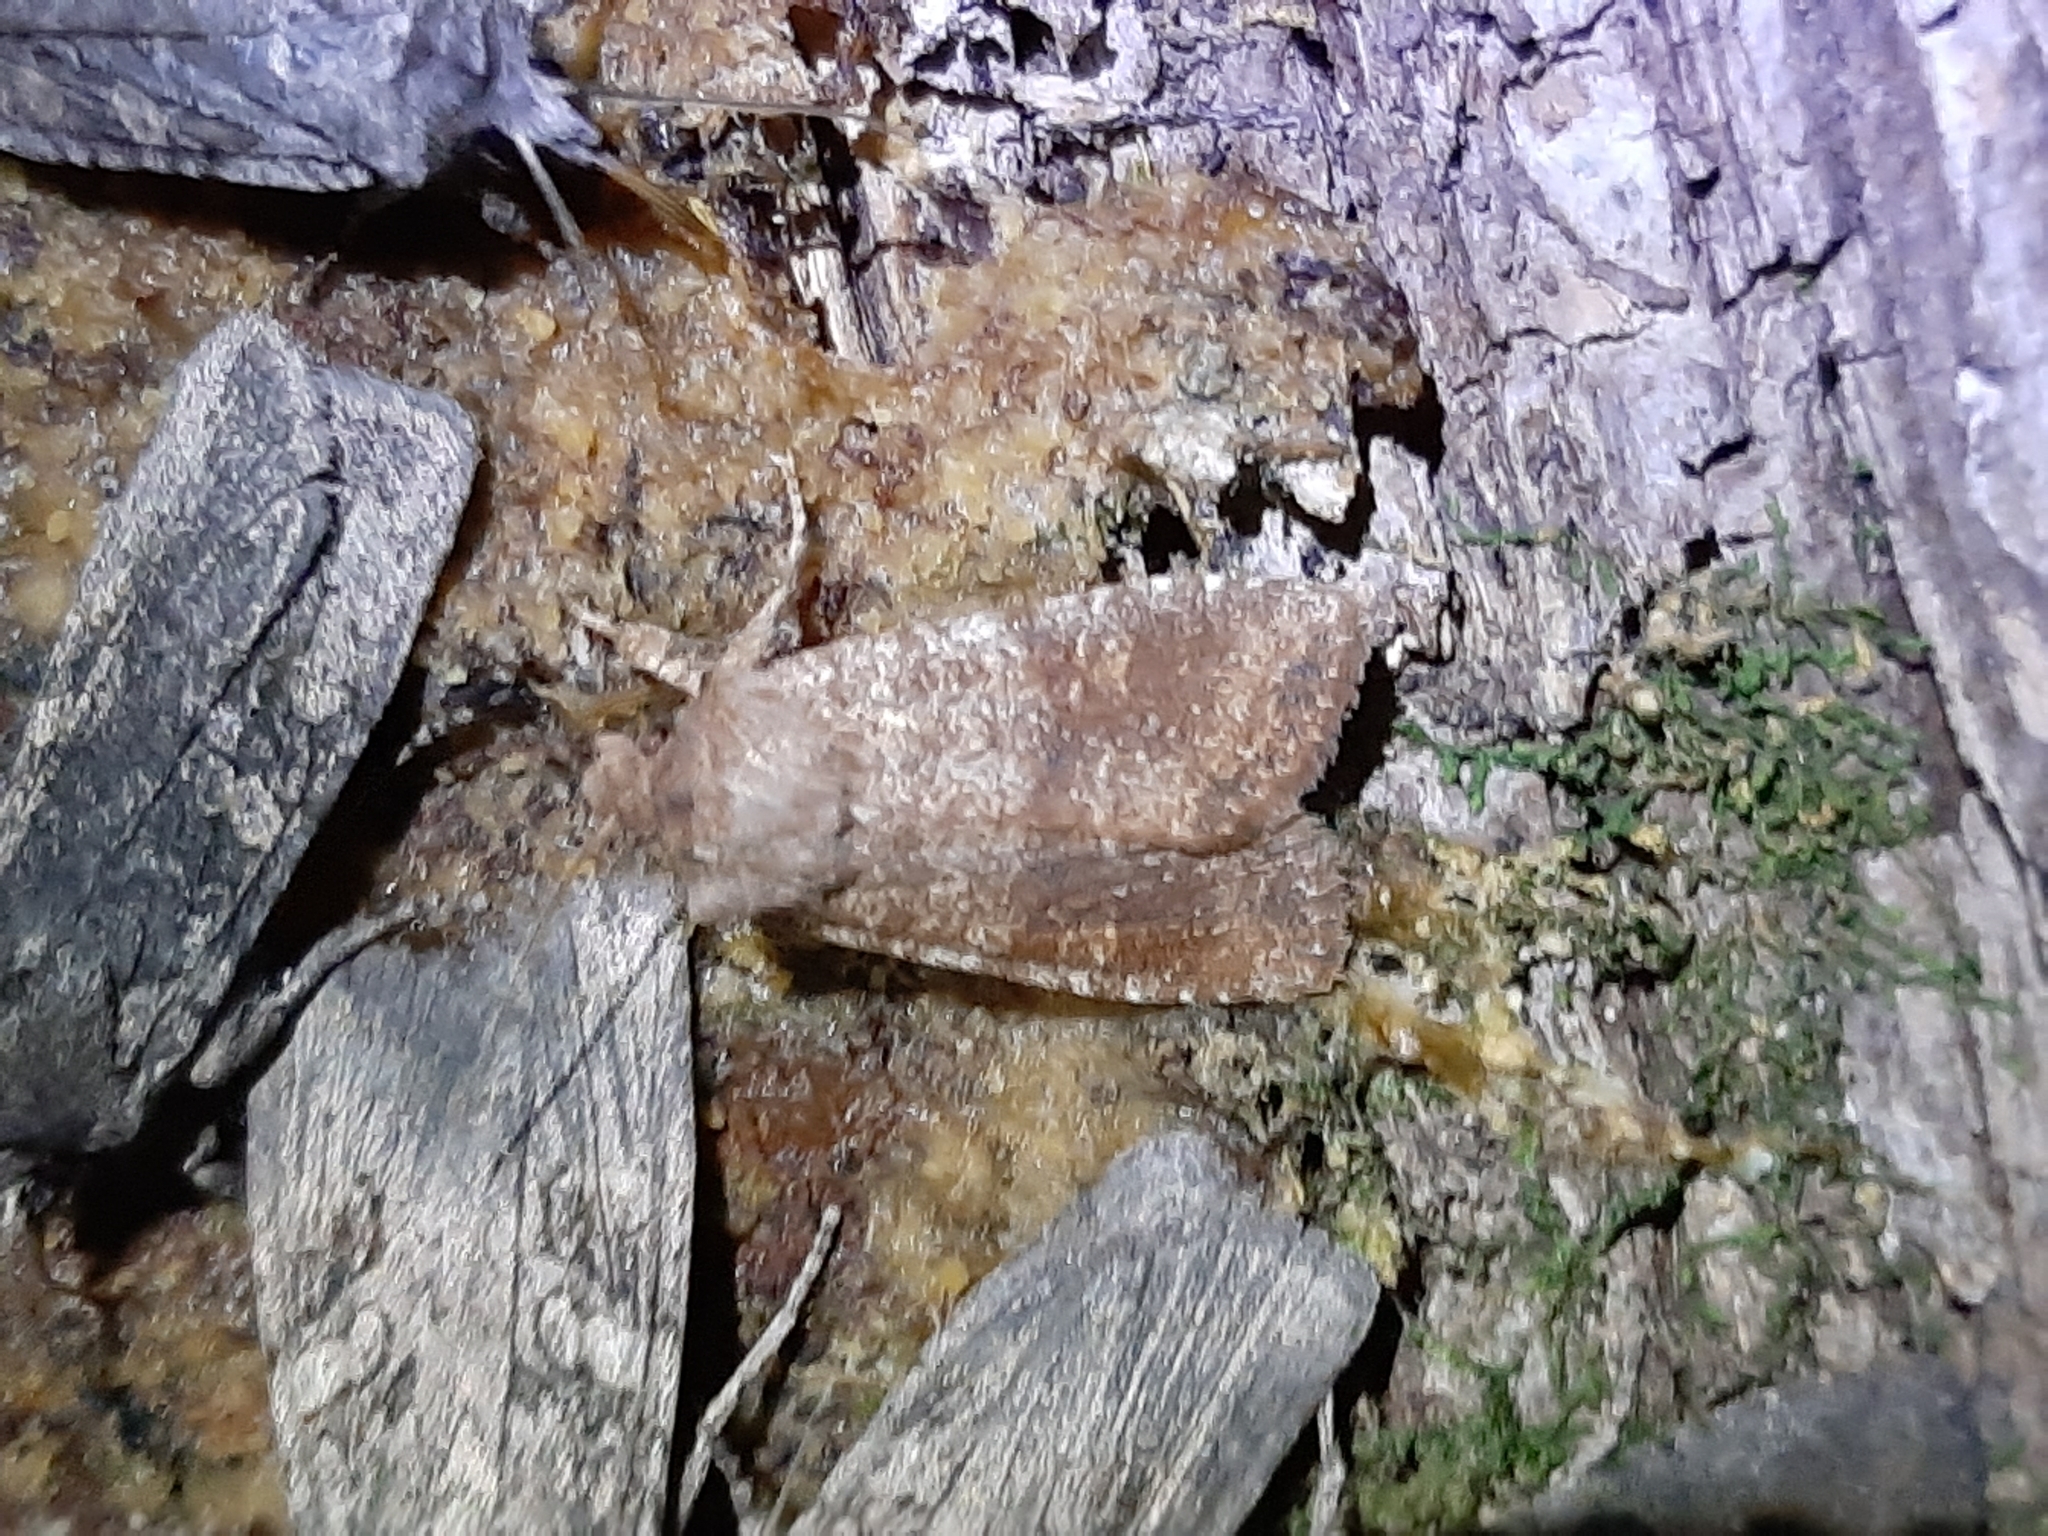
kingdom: Animalia
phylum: Arthropoda
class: Insecta
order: Lepidoptera
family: Noctuidae
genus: Lithophane
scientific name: Lithophane semiusta
